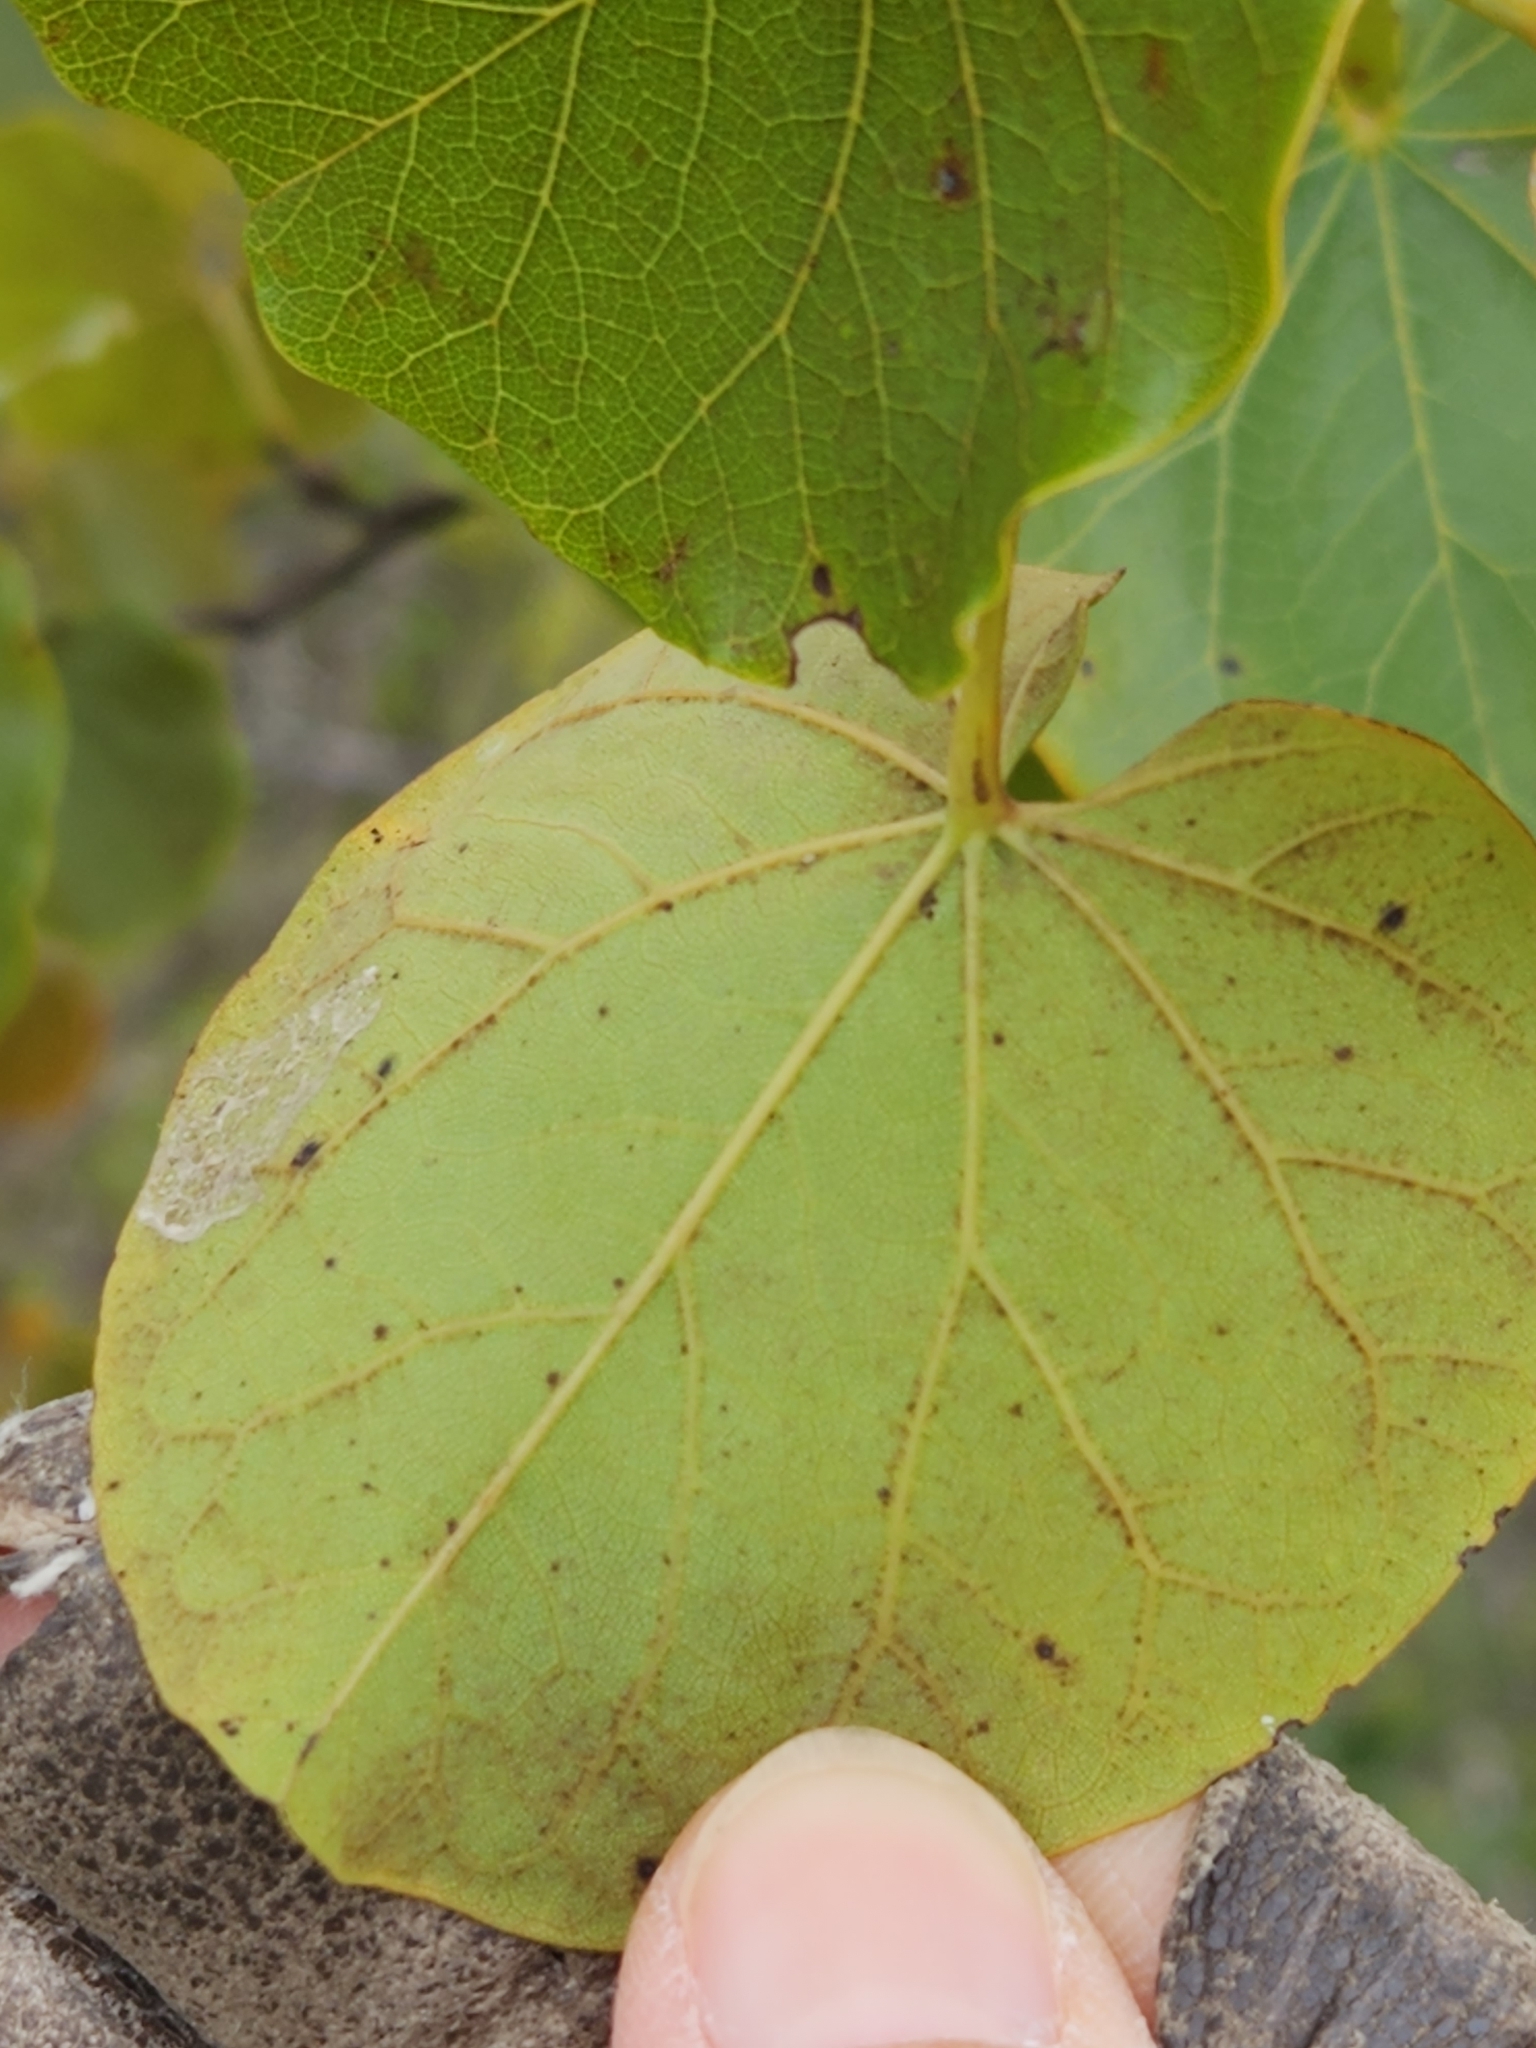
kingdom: Plantae
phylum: Tracheophyta
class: Magnoliopsida
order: Fabales
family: Fabaceae
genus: Cercis
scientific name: Cercis canadensis
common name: Eastern redbud
